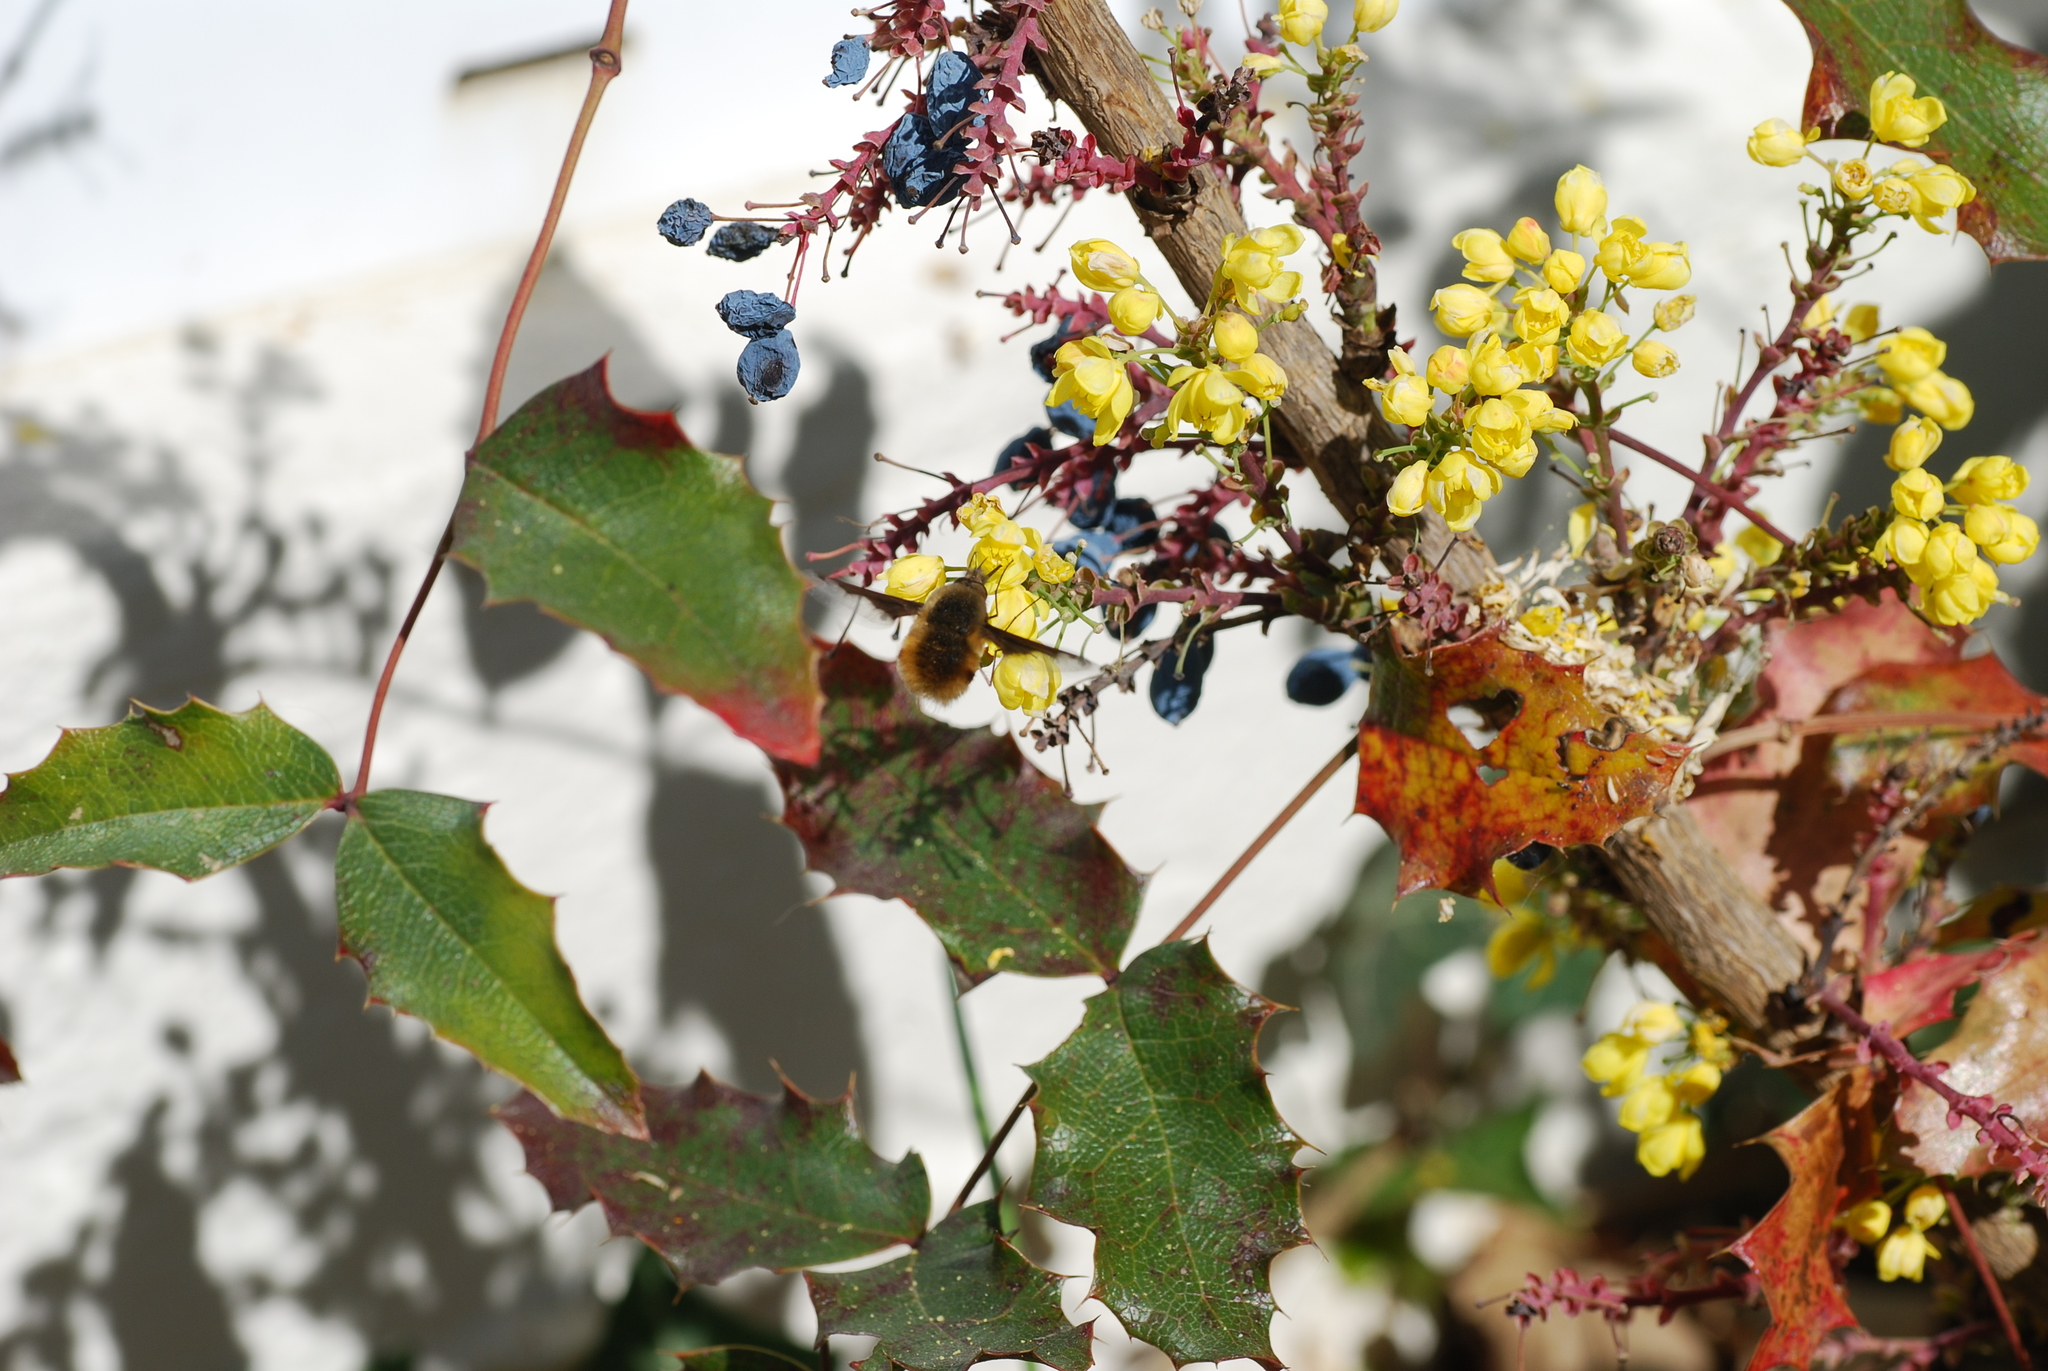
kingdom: Animalia
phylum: Arthropoda
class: Insecta
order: Diptera
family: Bombyliidae
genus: Bombylius
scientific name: Bombylius major
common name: Bee fly
